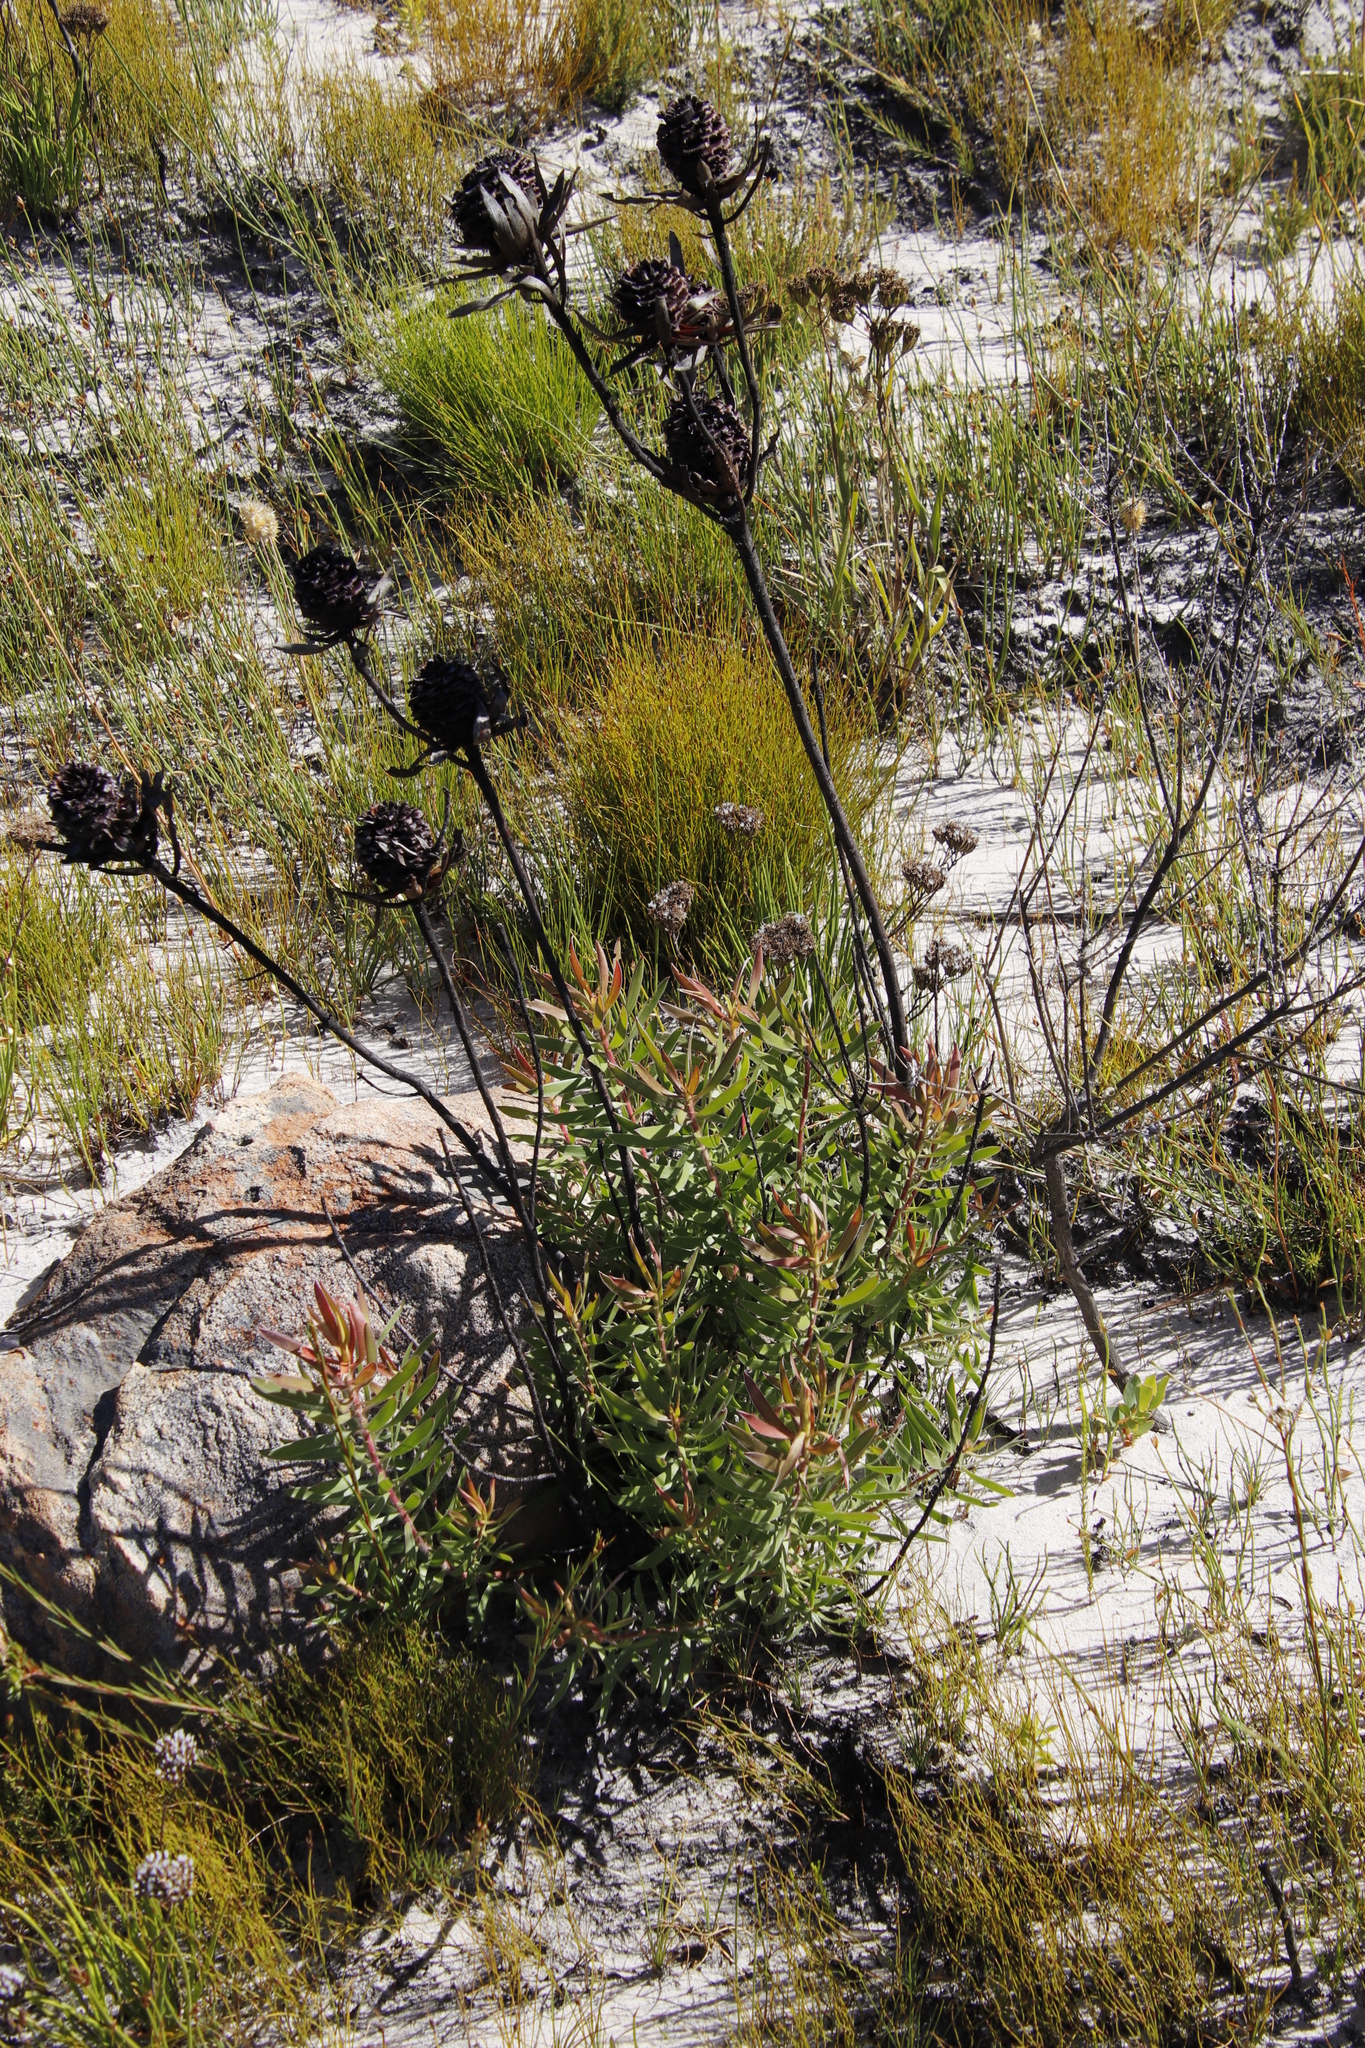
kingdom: Plantae
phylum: Tracheophyta
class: Magnoliopsida
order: Proteales
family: Proteaceae
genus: Leucadendron
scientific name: Leucadendron spissifolium
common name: Spear-leaf conebush
